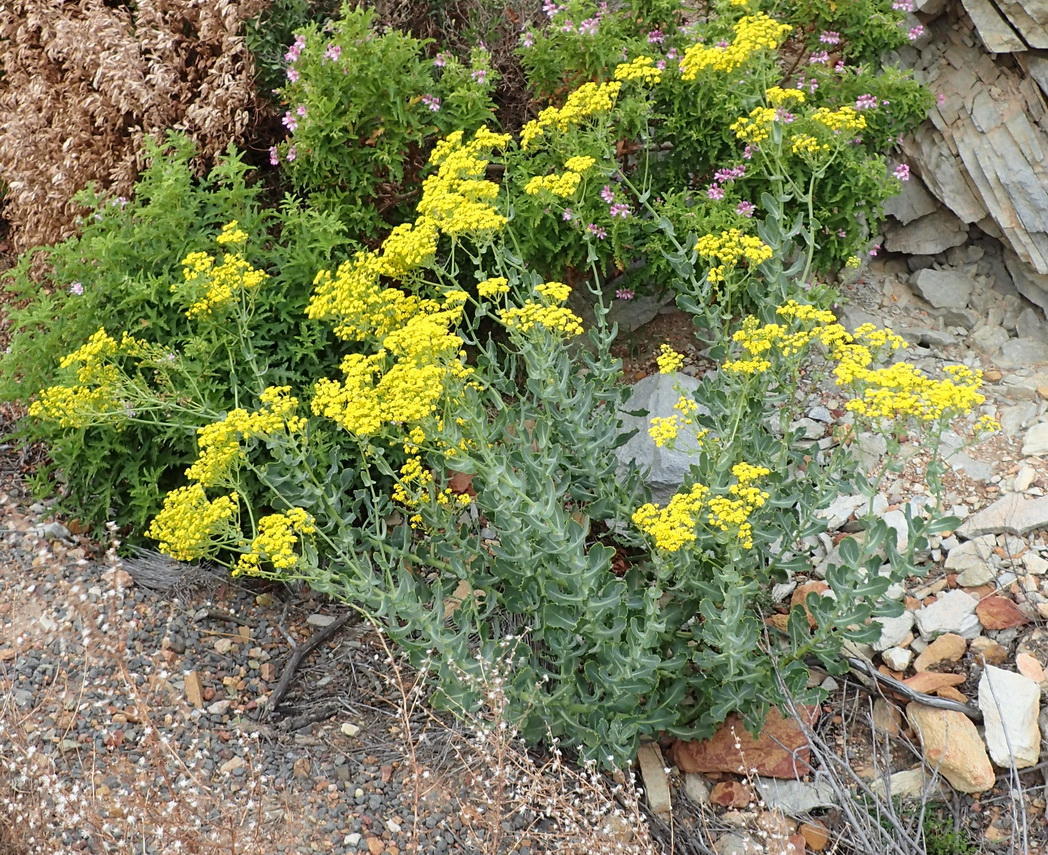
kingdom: Plantae
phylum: Tracheophyta
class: Magnoliopsida
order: Asterales
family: Asteraceae
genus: Othonna
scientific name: Othonna parviflora
